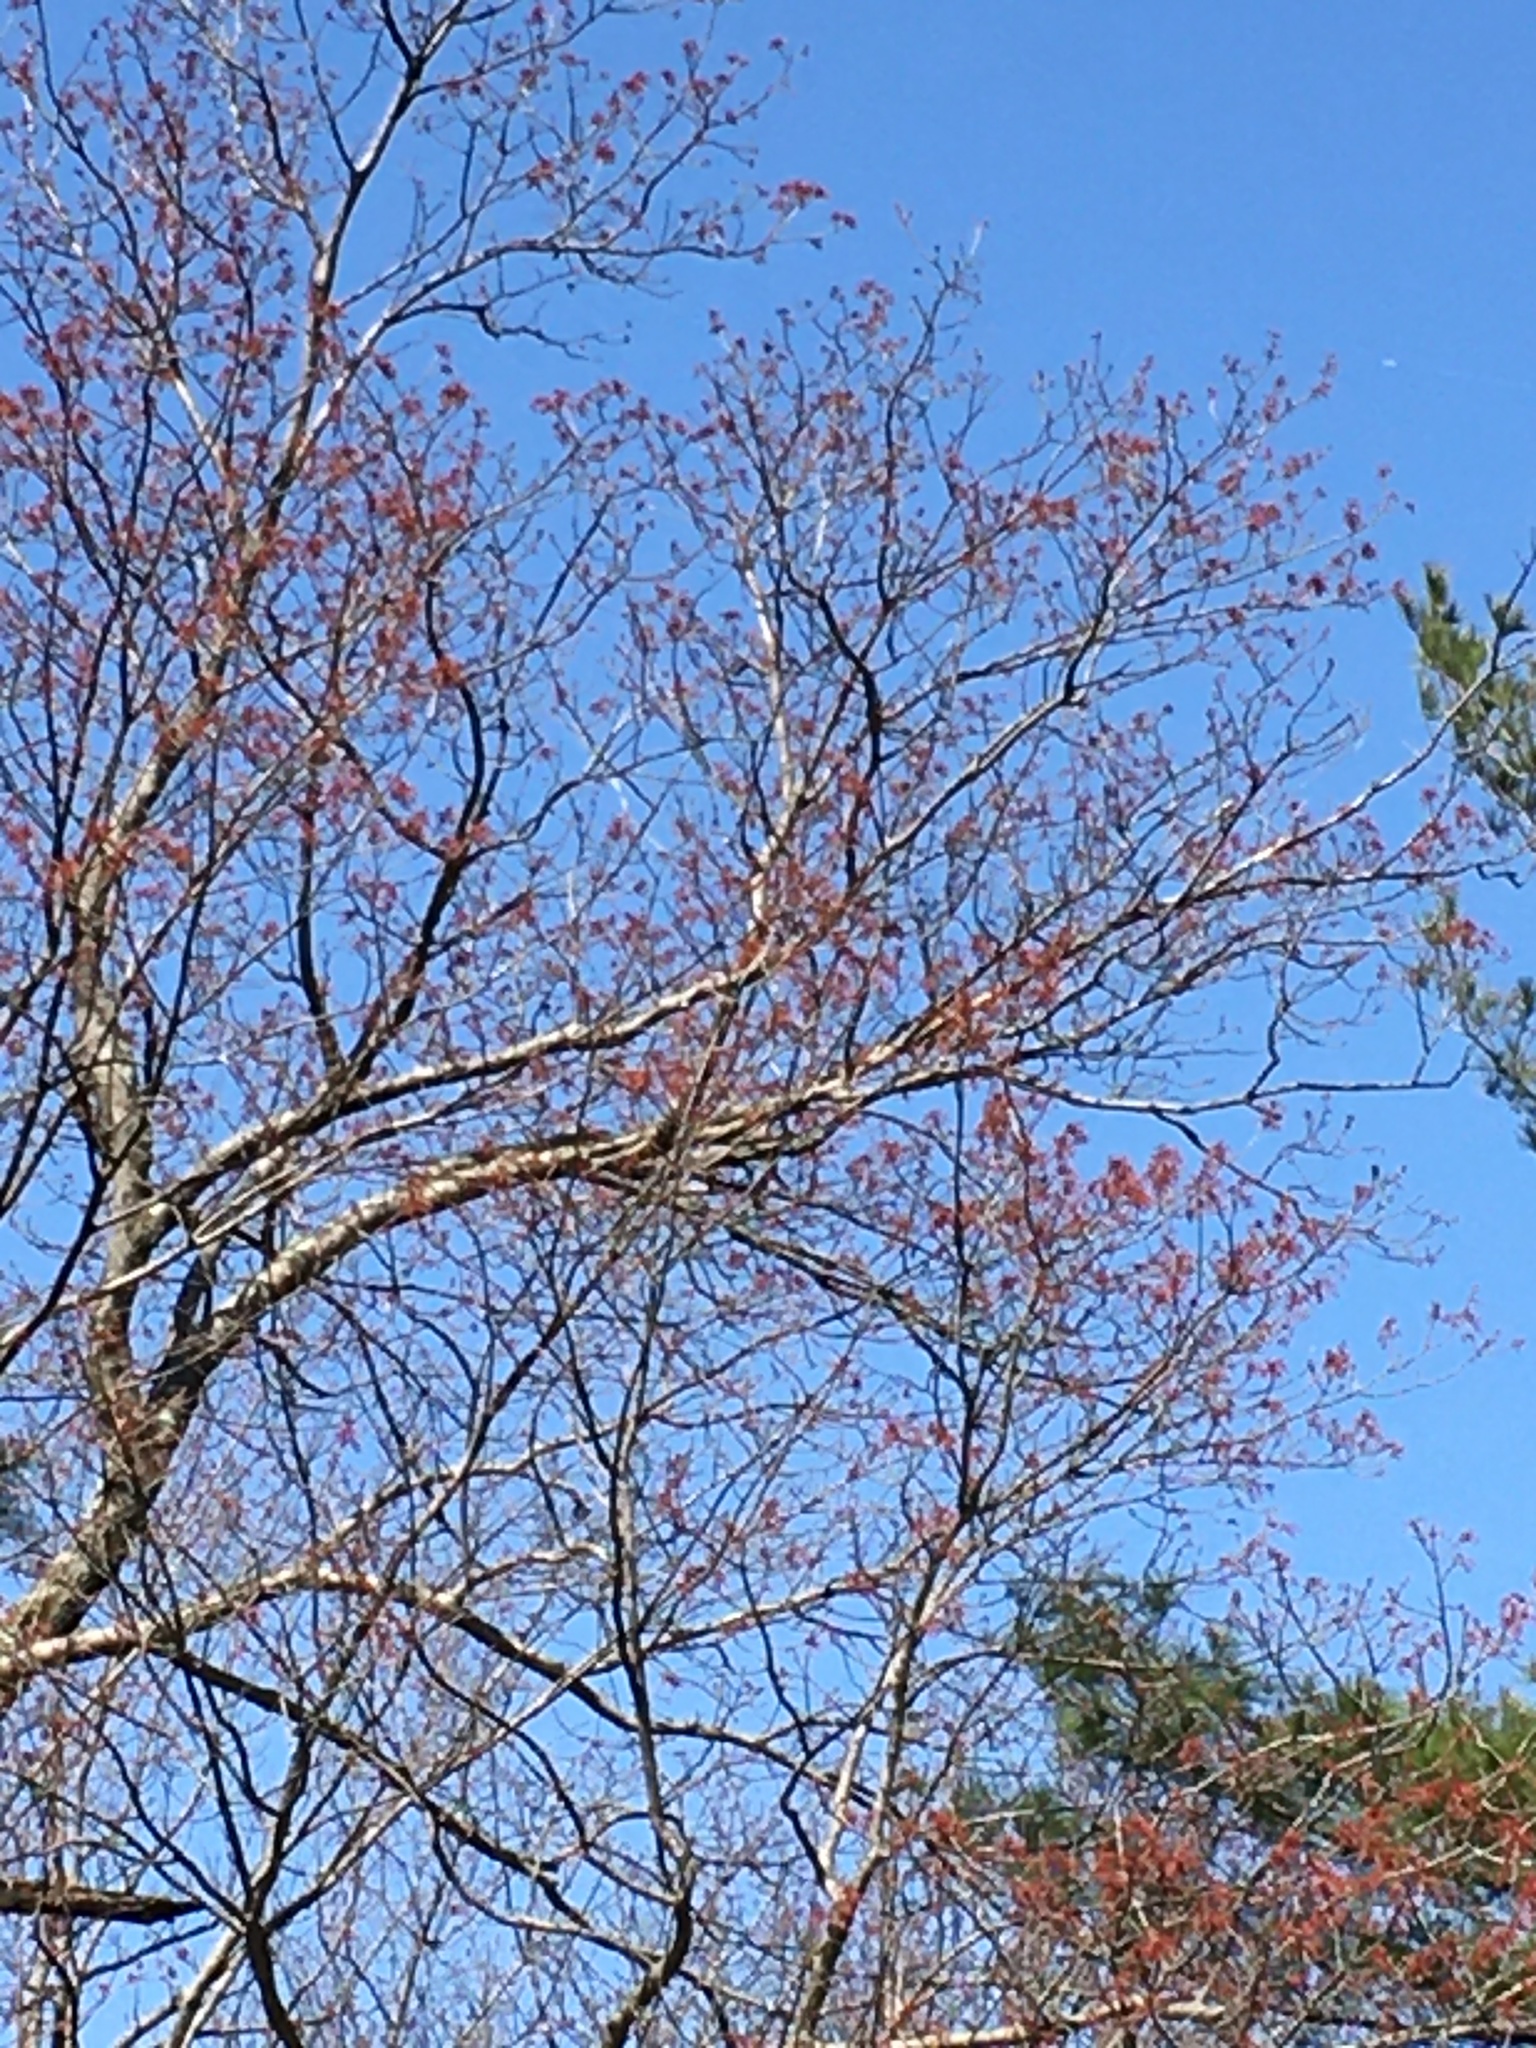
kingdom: Plantae
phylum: Tracheophyta
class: Magnoliopsida
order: Fabales
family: Fabaceae
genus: Cercis
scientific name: Cercis canadensis
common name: Eastern redbud
